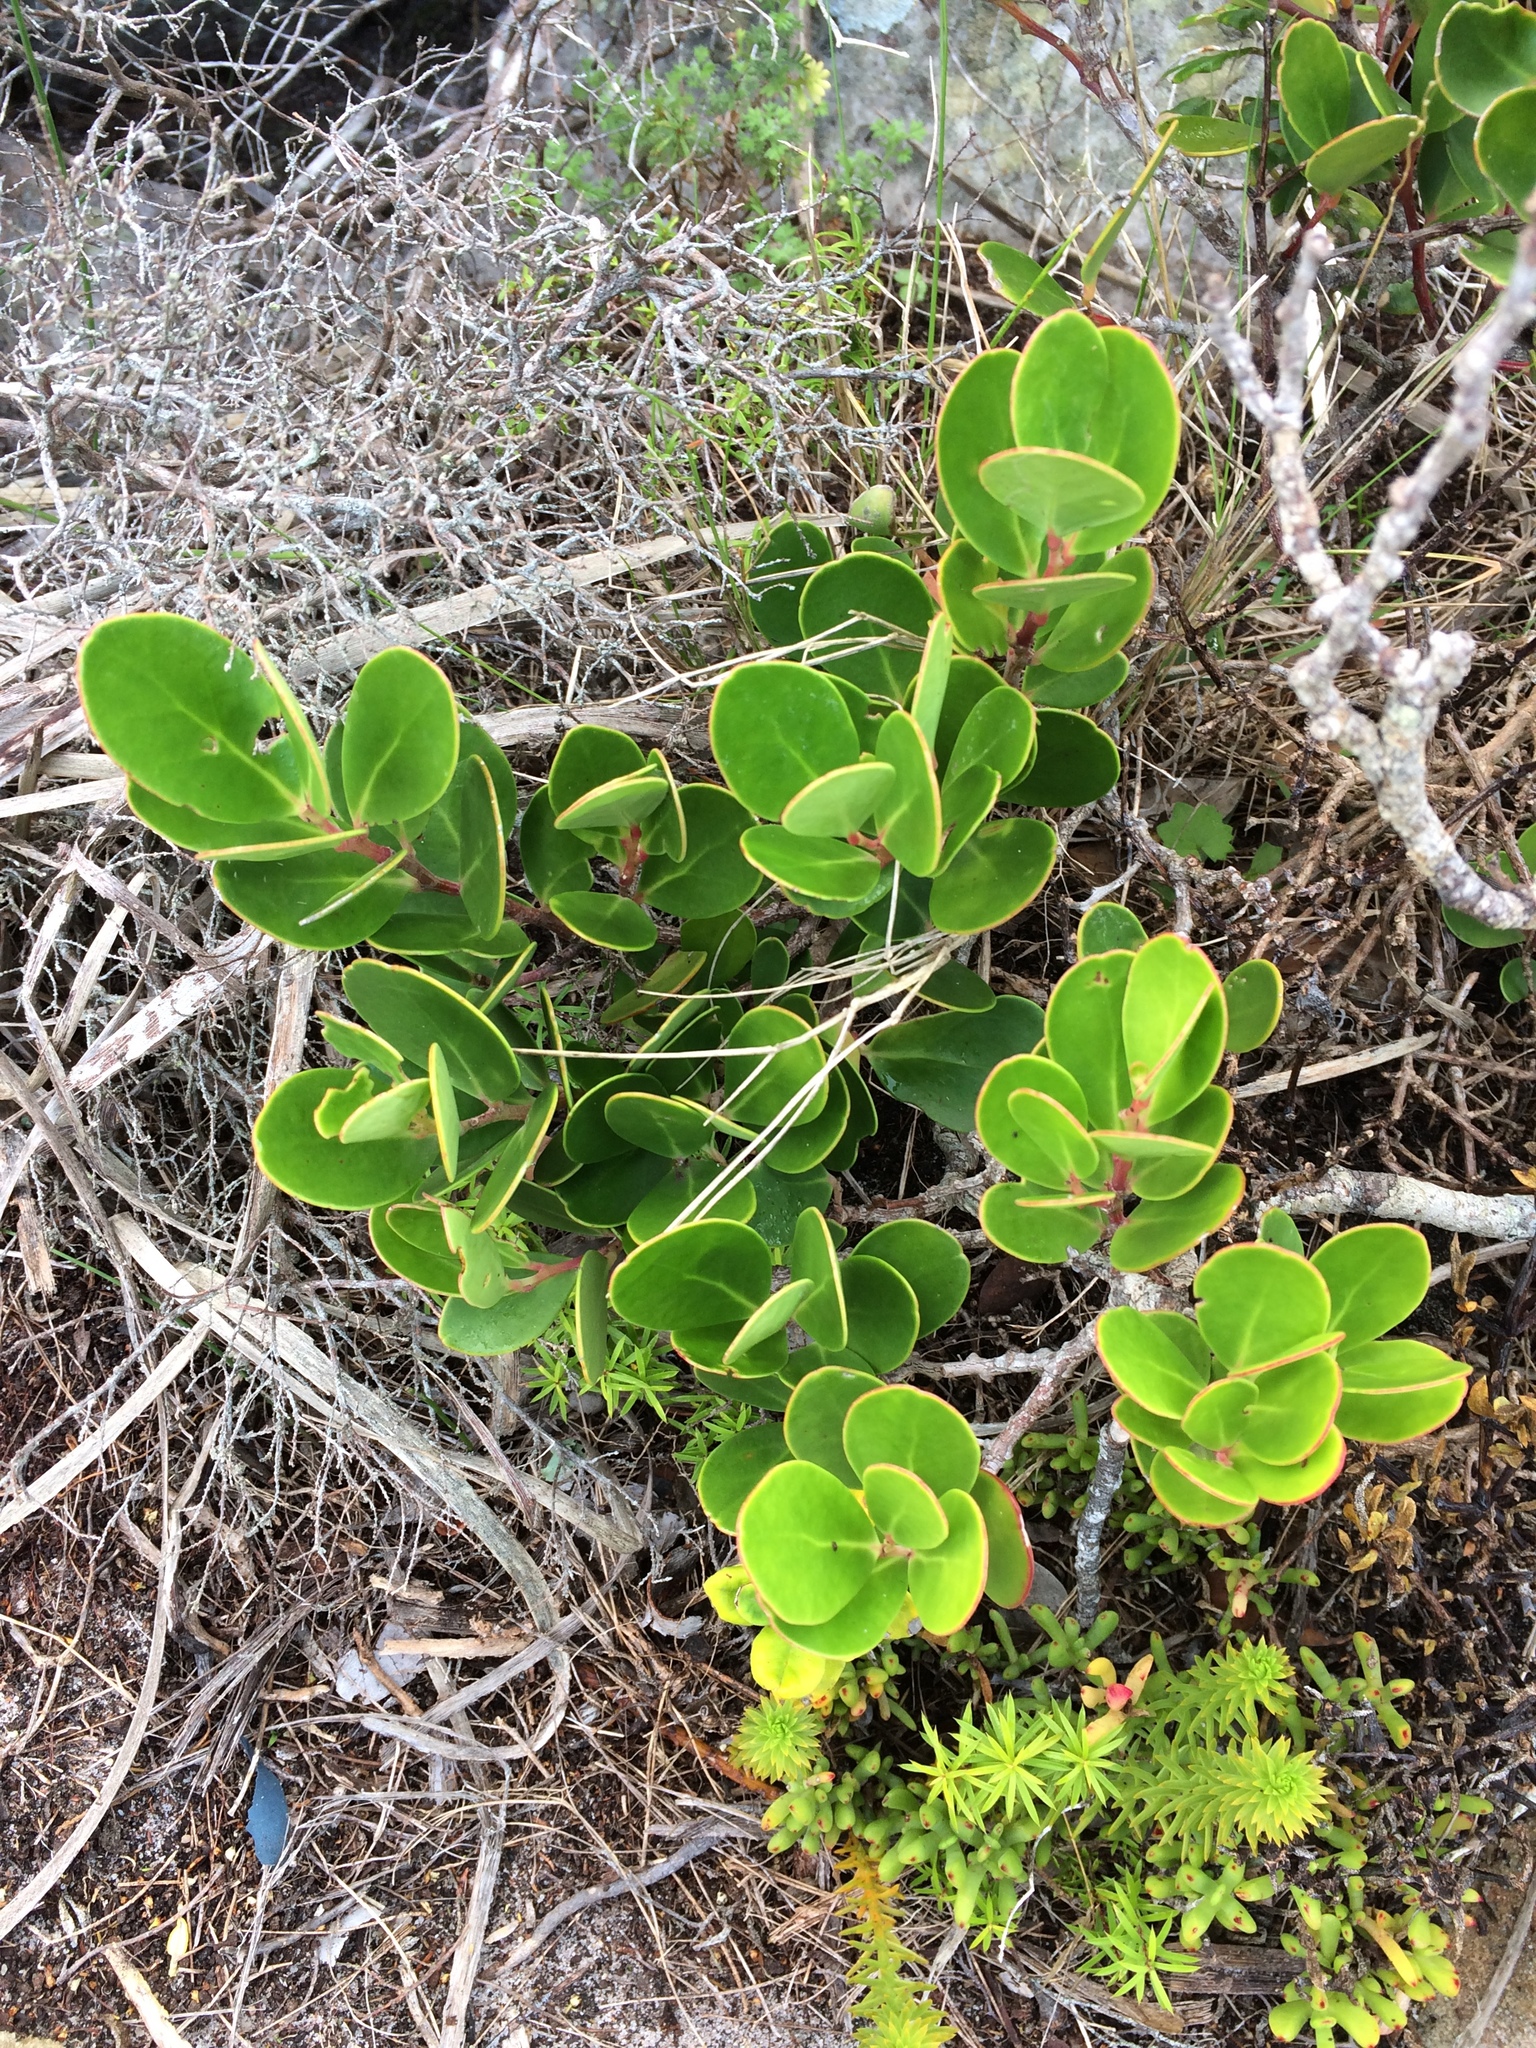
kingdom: Plantae
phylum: Tracheophyta
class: Magnoliopsida
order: Celastrales
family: Celastraceae
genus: Pterocelastrus
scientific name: Pterocelastrus tricuspidatus
